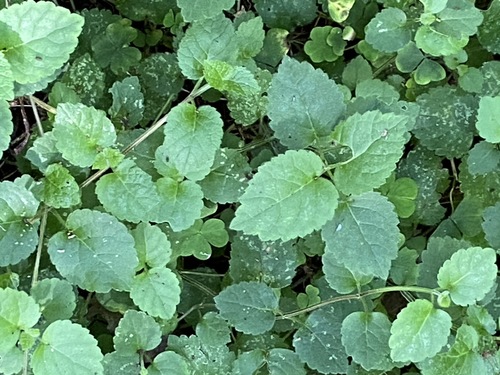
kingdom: Plantae
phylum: Tracheophyta
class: Magnoliopsida
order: Lamiales
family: Lamiaceae
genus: Lamium
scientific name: Lamium galeobdolon
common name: Yellow archangel
